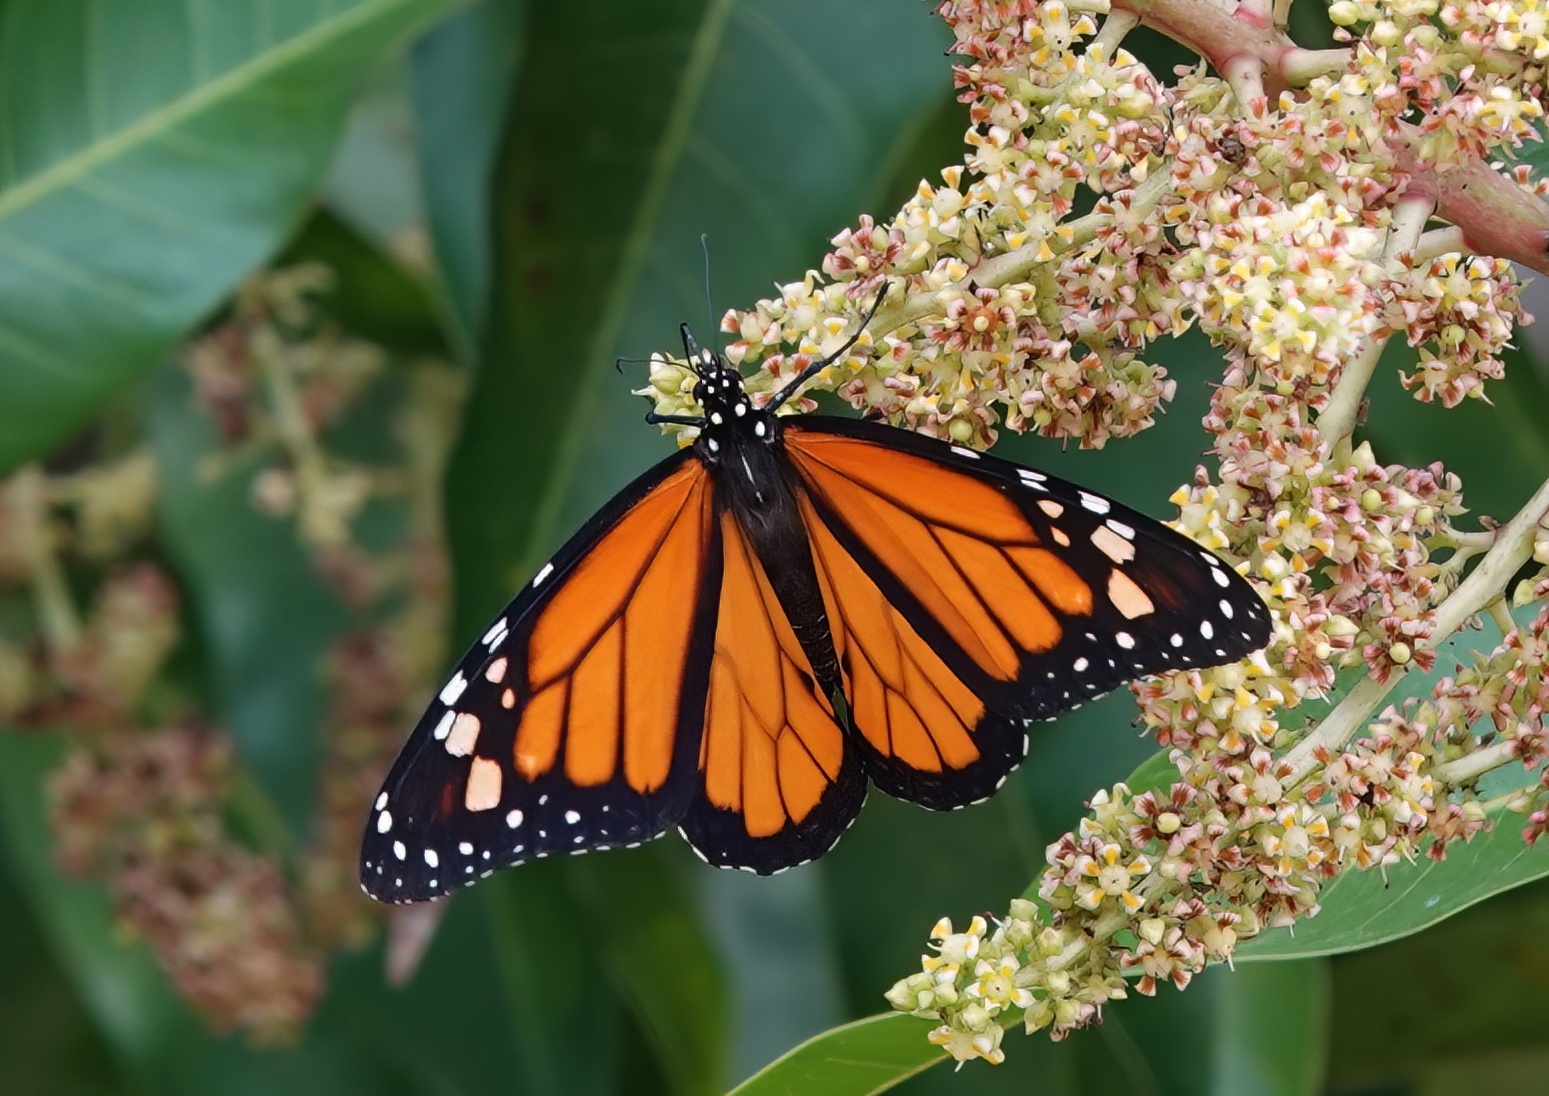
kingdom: Animalia
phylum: Arthropoda
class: Insecta
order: Lepidoptera
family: Nymphalidae
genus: Danaus
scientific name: Danaus plexippus
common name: Monarch
